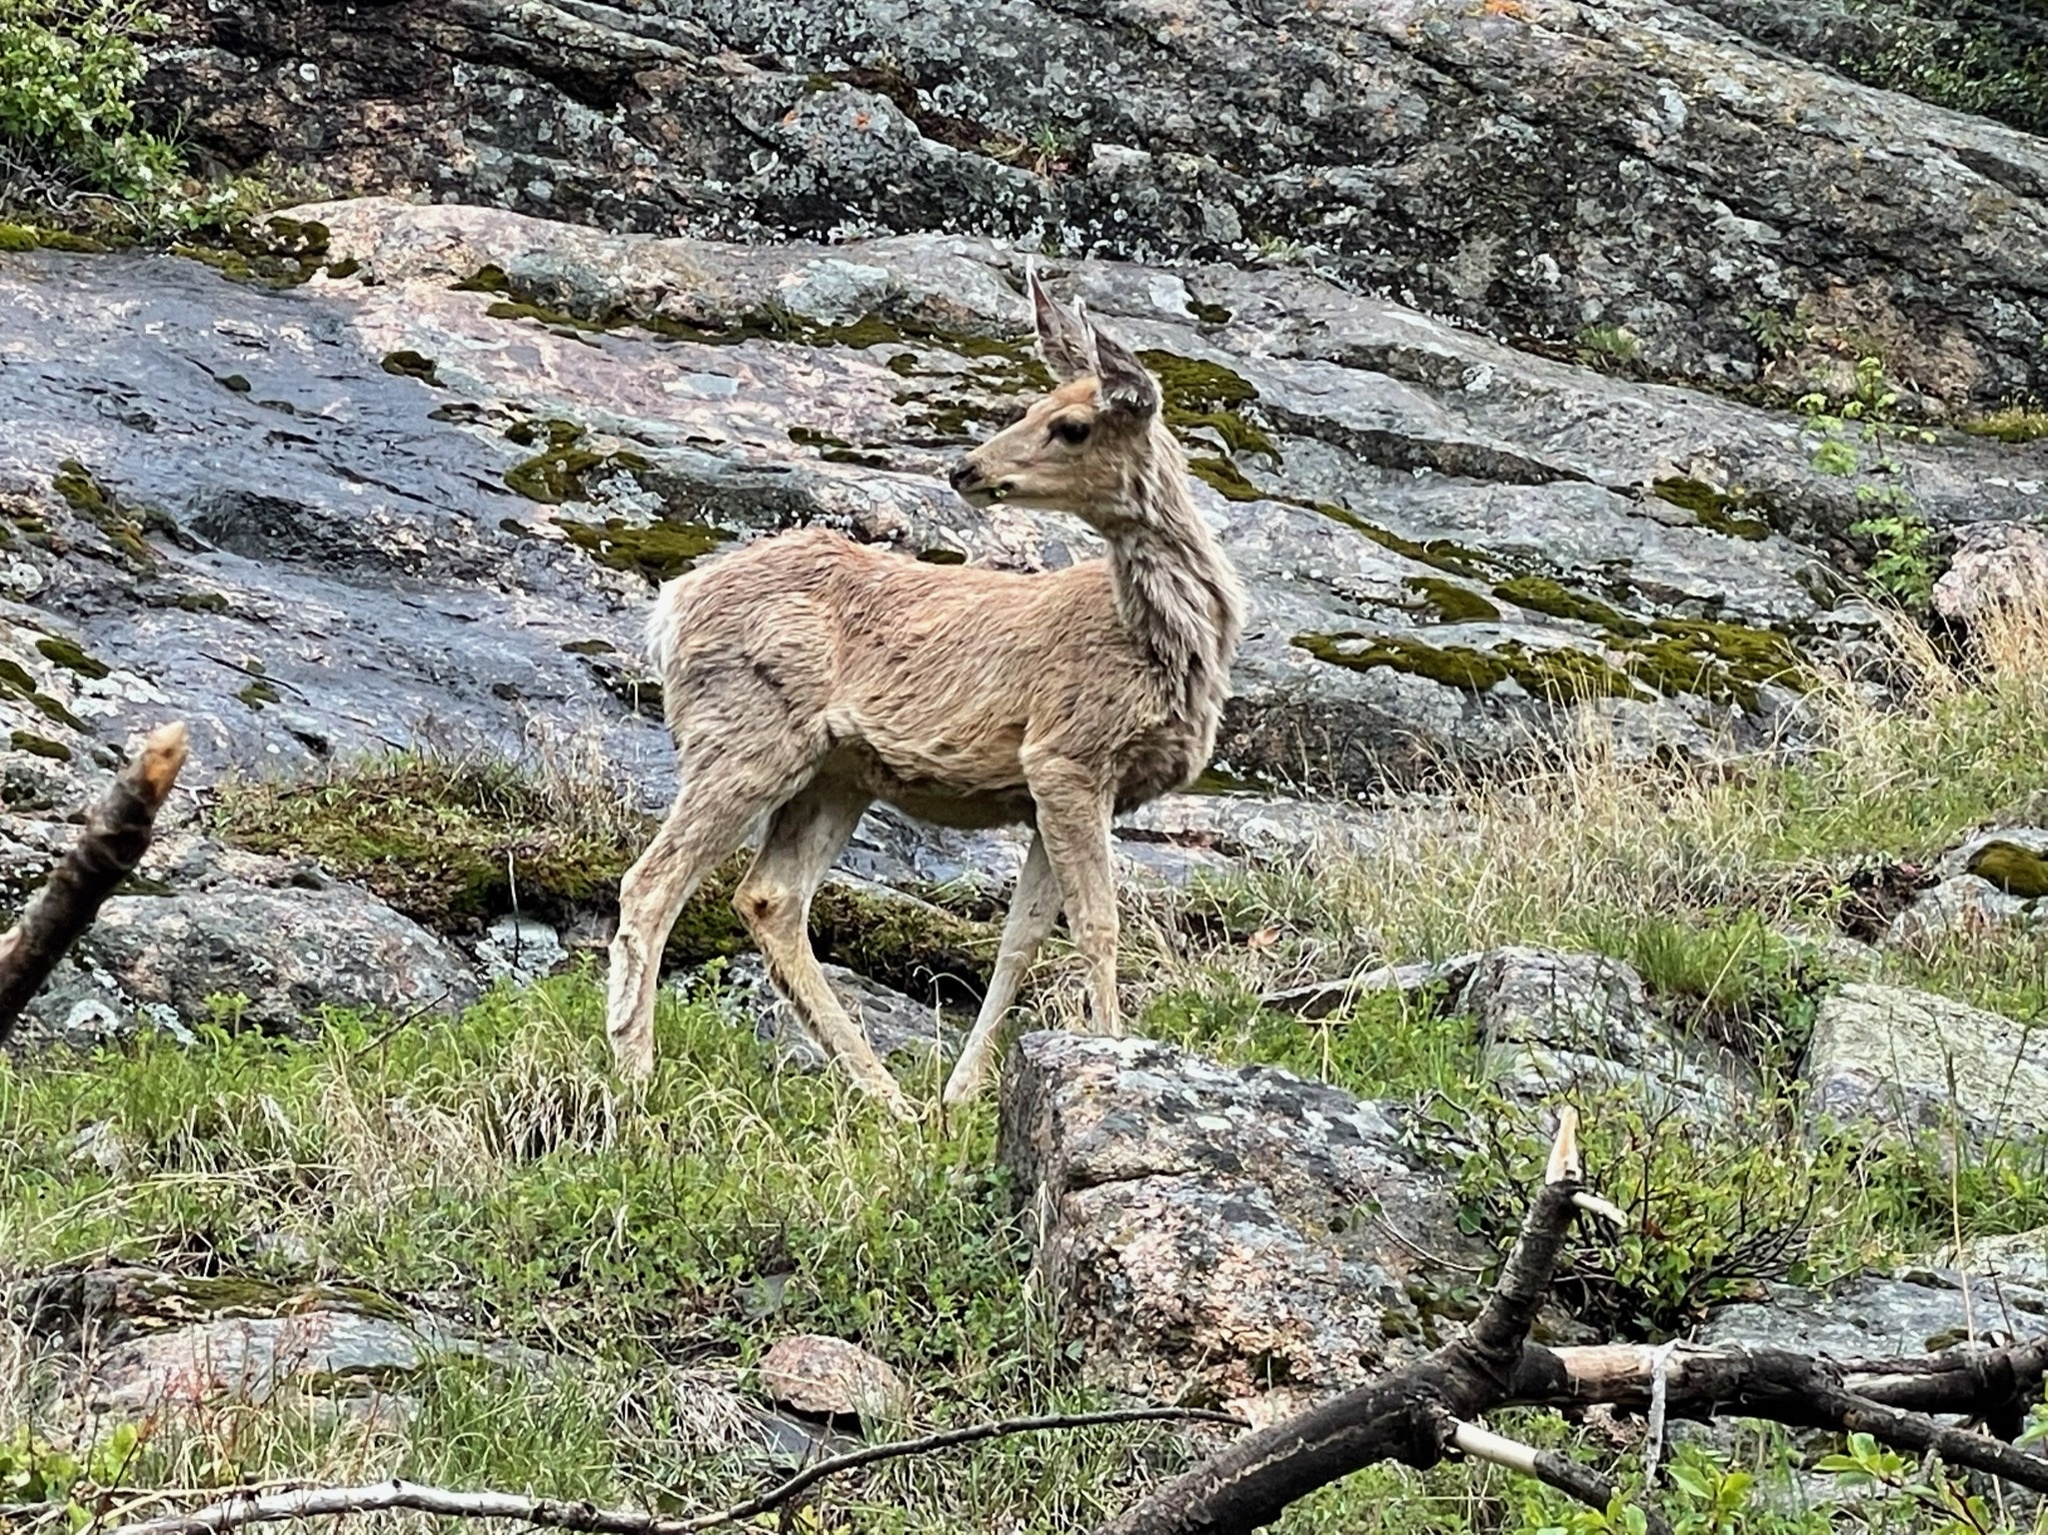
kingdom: Animalia
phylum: Chordata
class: Mammalia
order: Artiodactyla
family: Cervidae
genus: Odocoileus
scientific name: Odocoileus hemionus
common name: Mule deer
